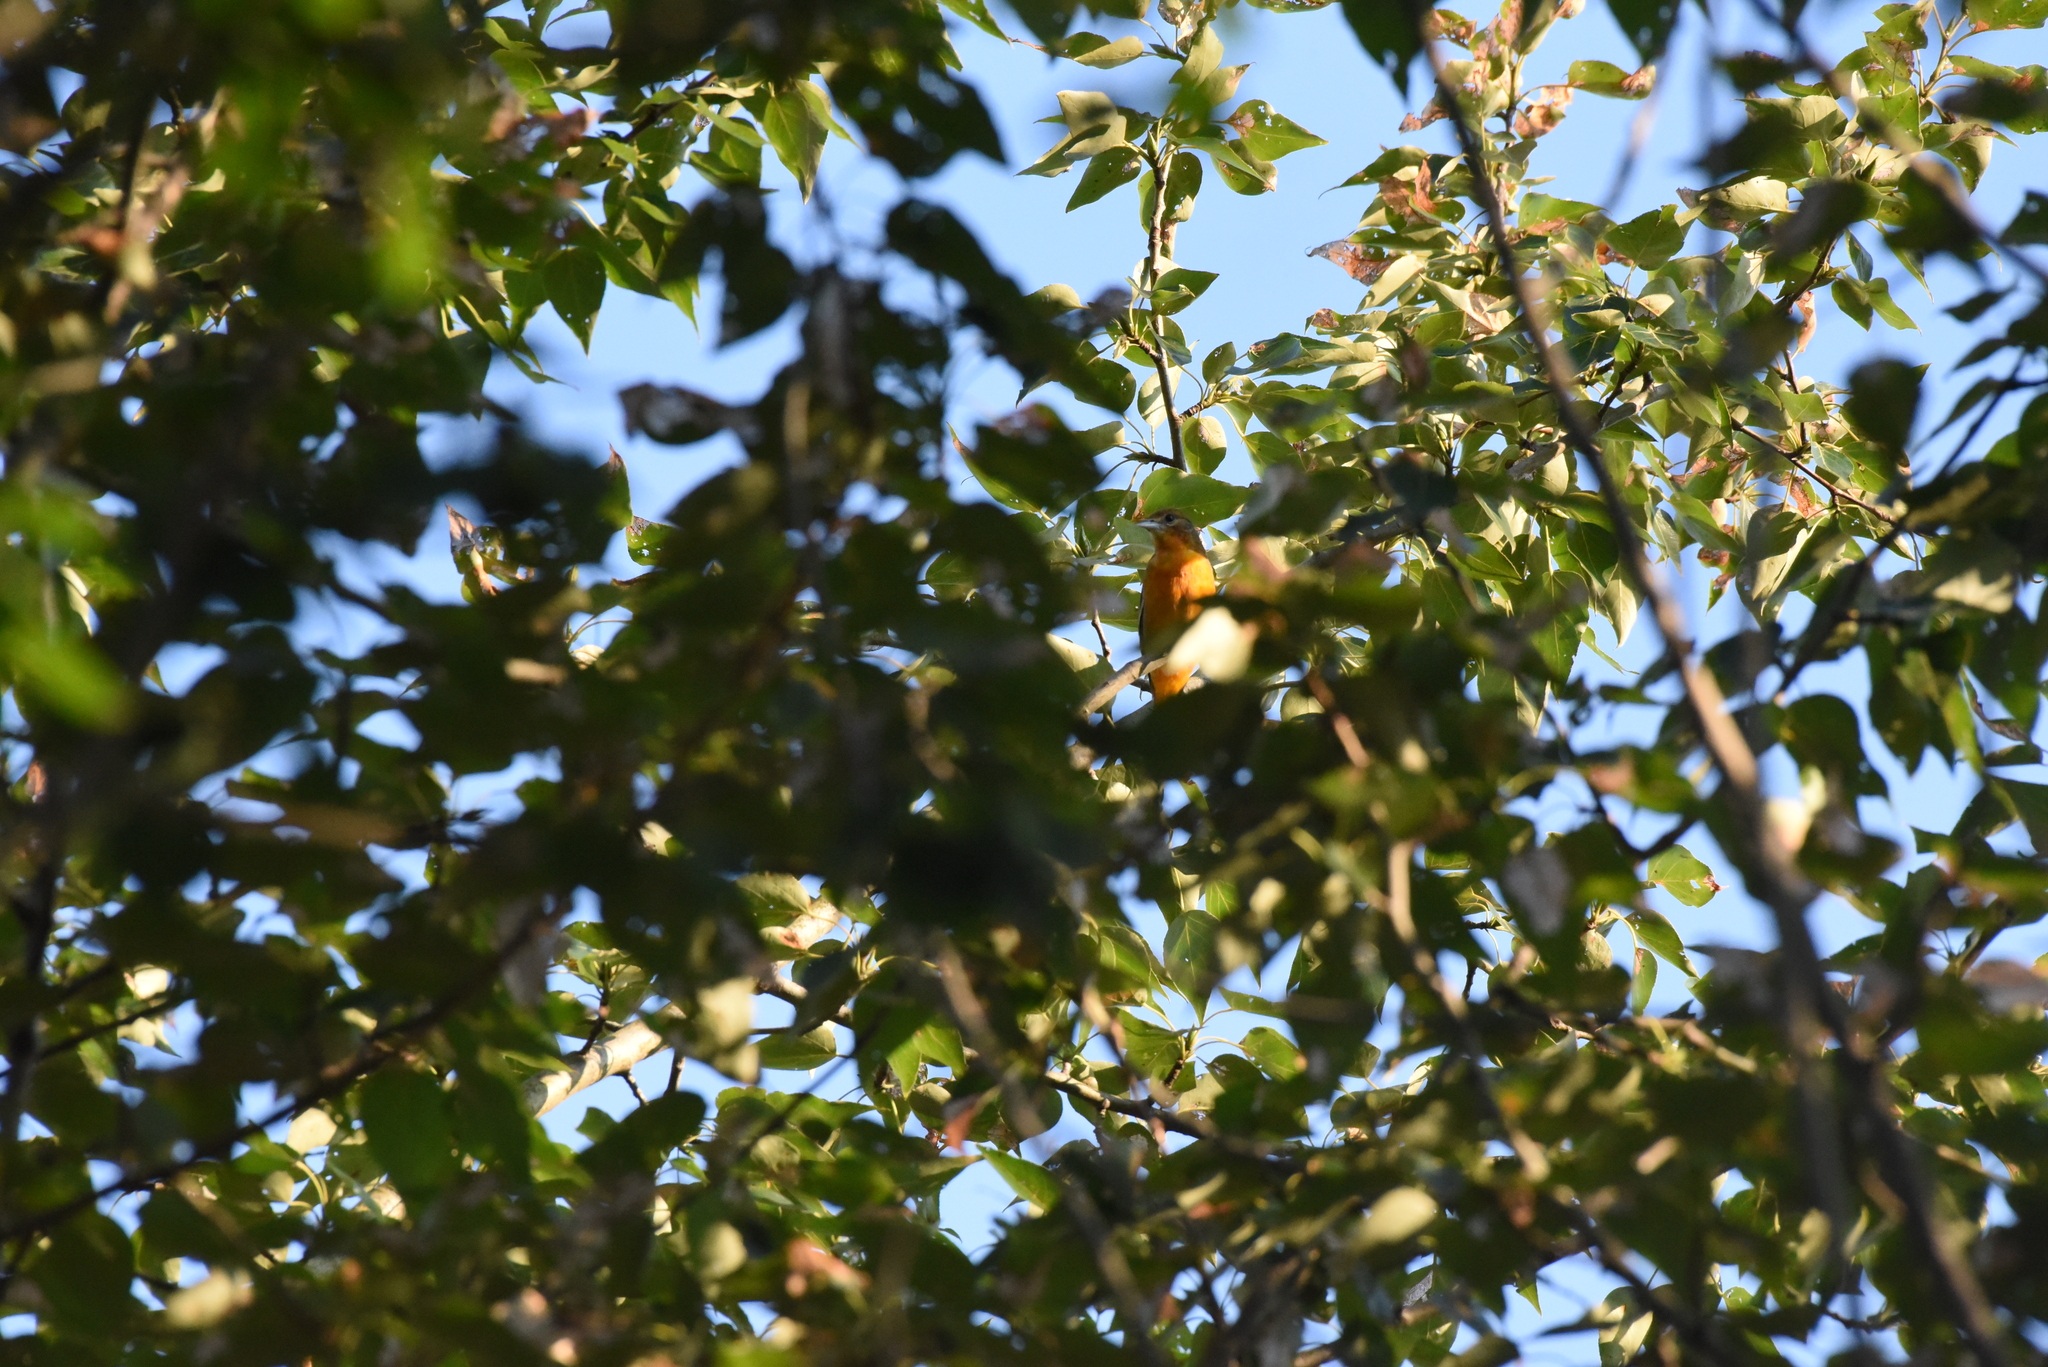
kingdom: Animalia
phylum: Chordata
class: Aves
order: Passeriformes
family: Icteridae
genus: Icterus
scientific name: Icterus galbula
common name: Baltimore oriole
